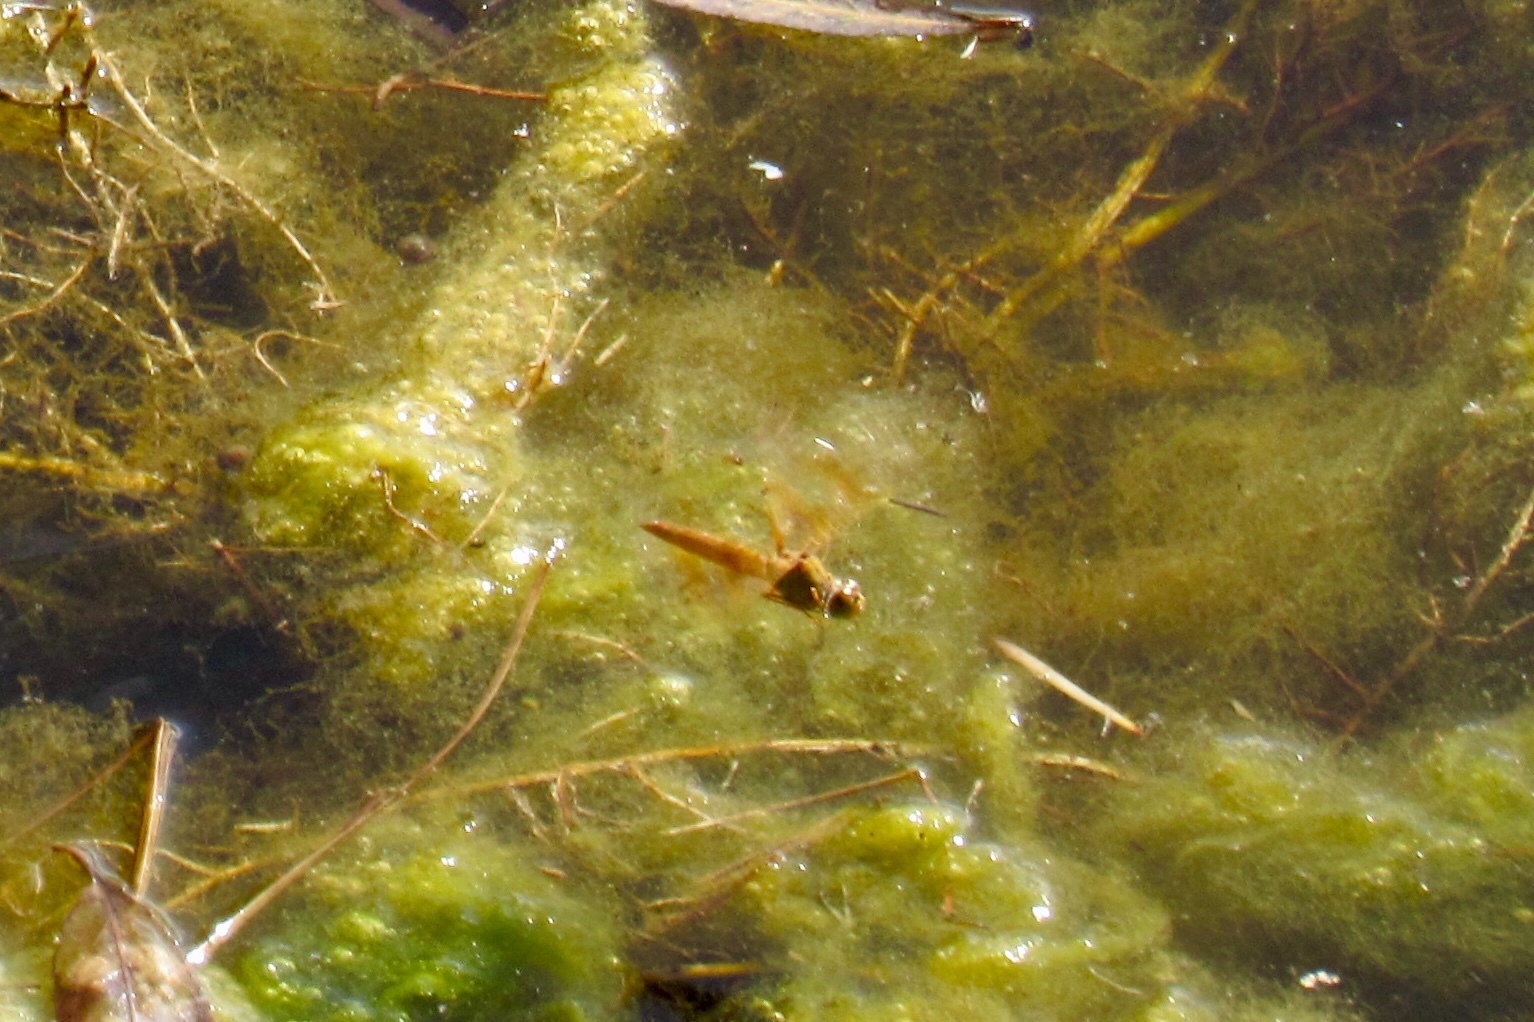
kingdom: Animalia
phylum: Arthropoda
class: Insecta
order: Odonata
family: Libellulidae
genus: Perithemis
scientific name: Perithemis intensa
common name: Mexican amberwing
